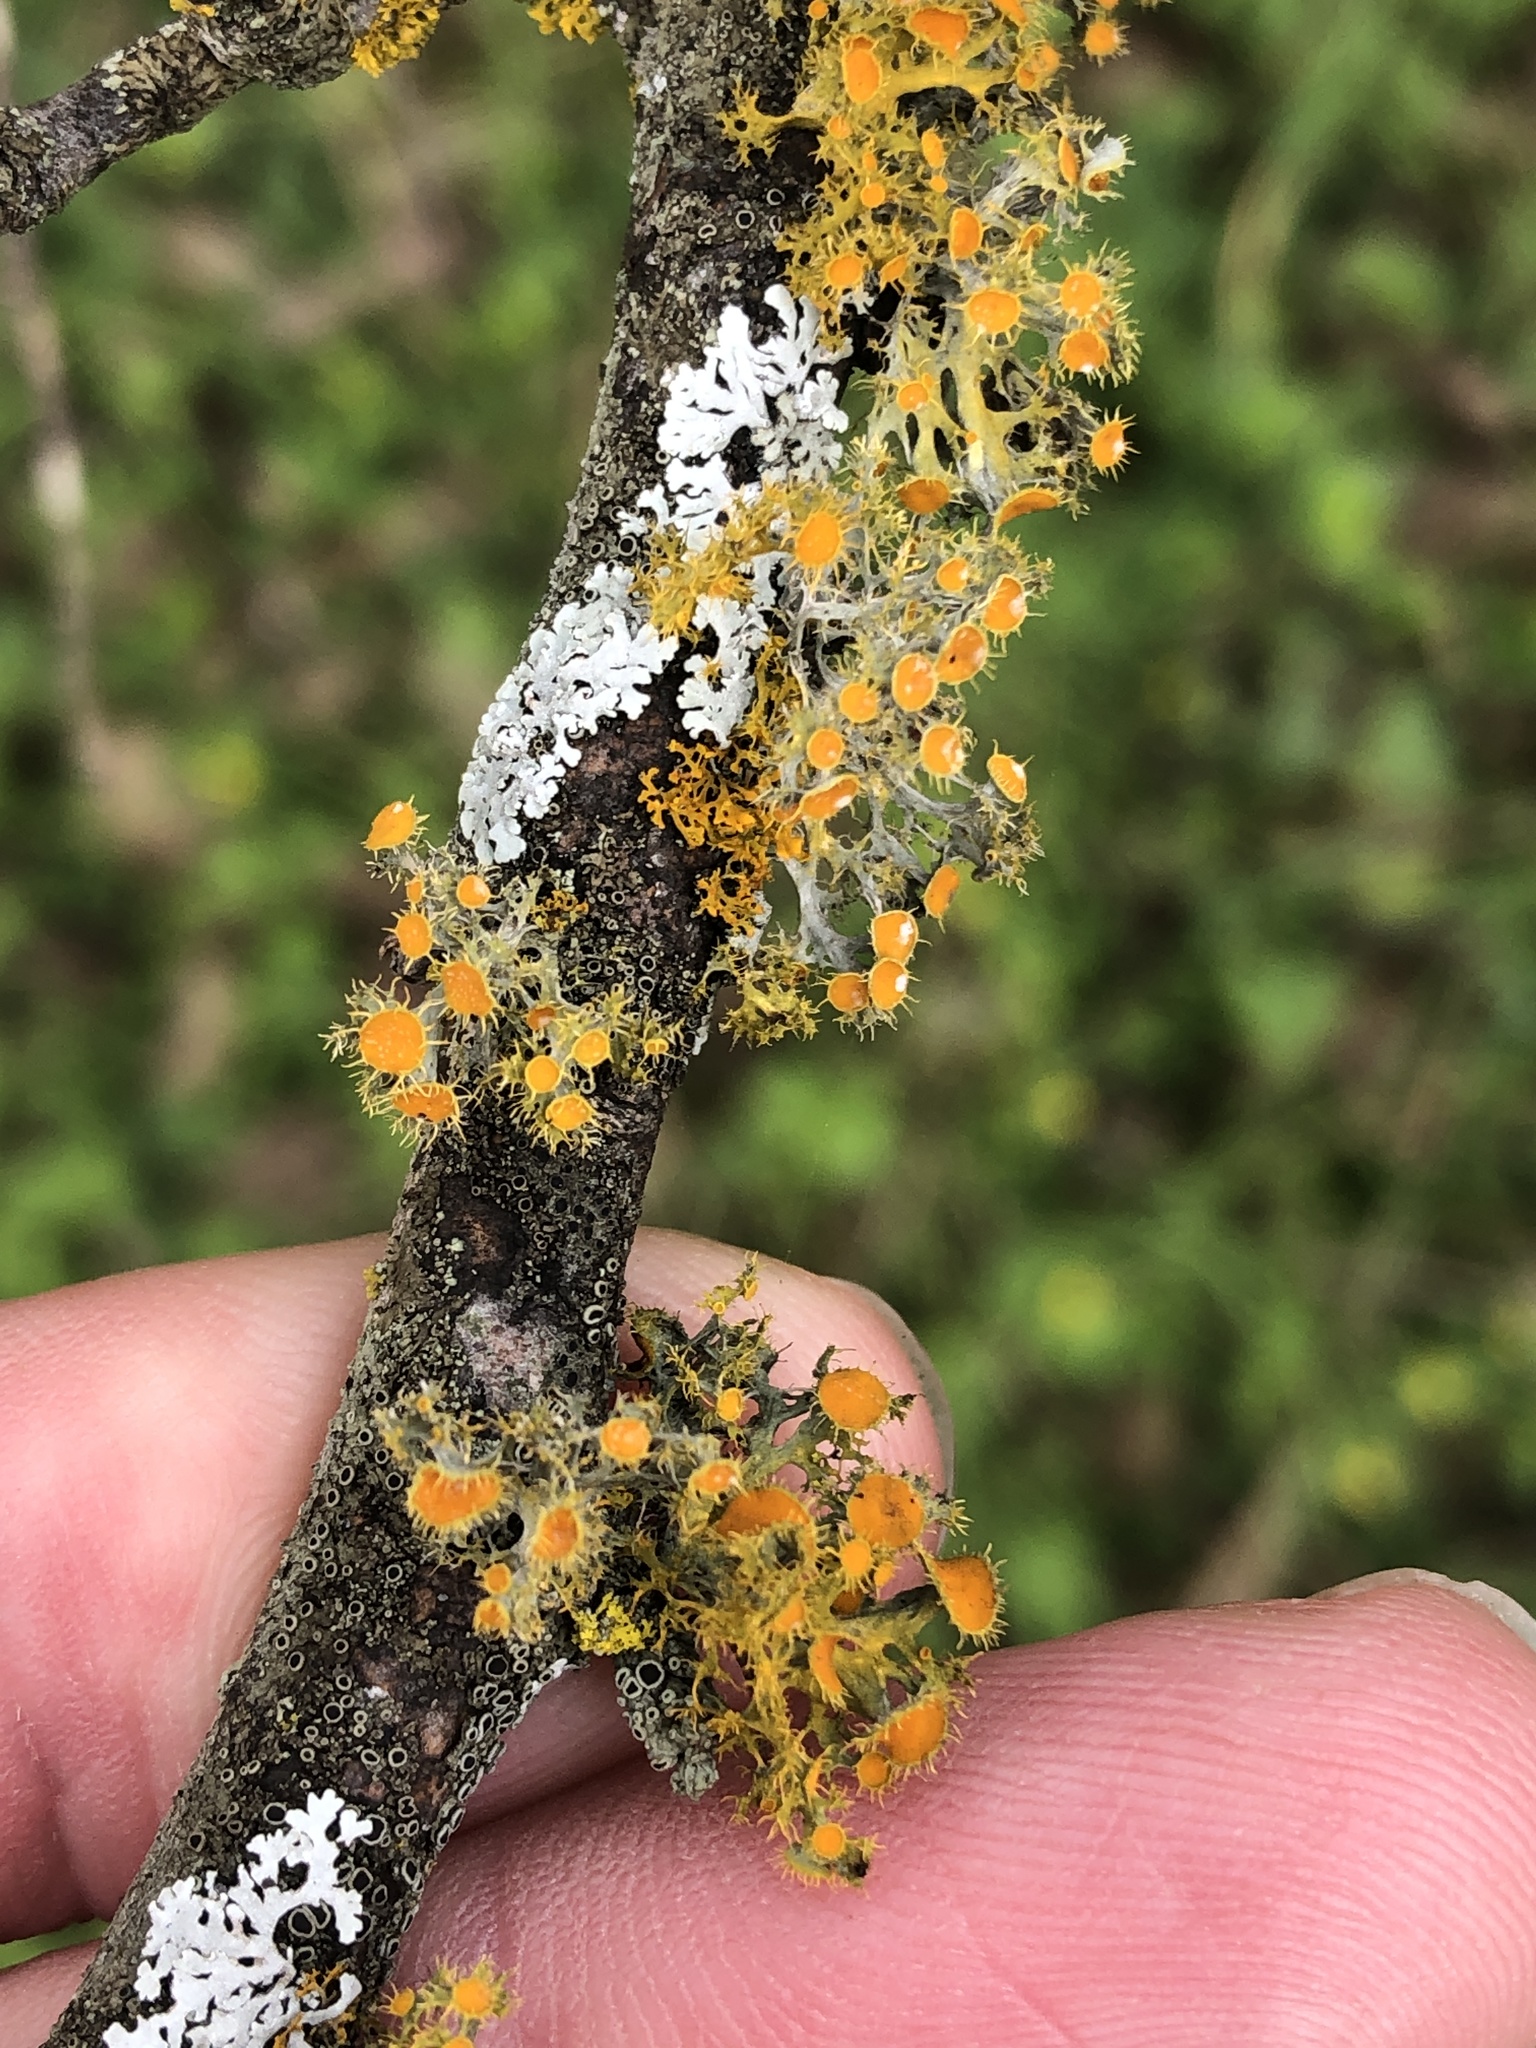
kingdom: Fungi
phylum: Ascomycota
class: Lecanoromycetes
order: Teloschistales
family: Teloschistaceae
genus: Niorma
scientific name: Niorma chrysophthalma
